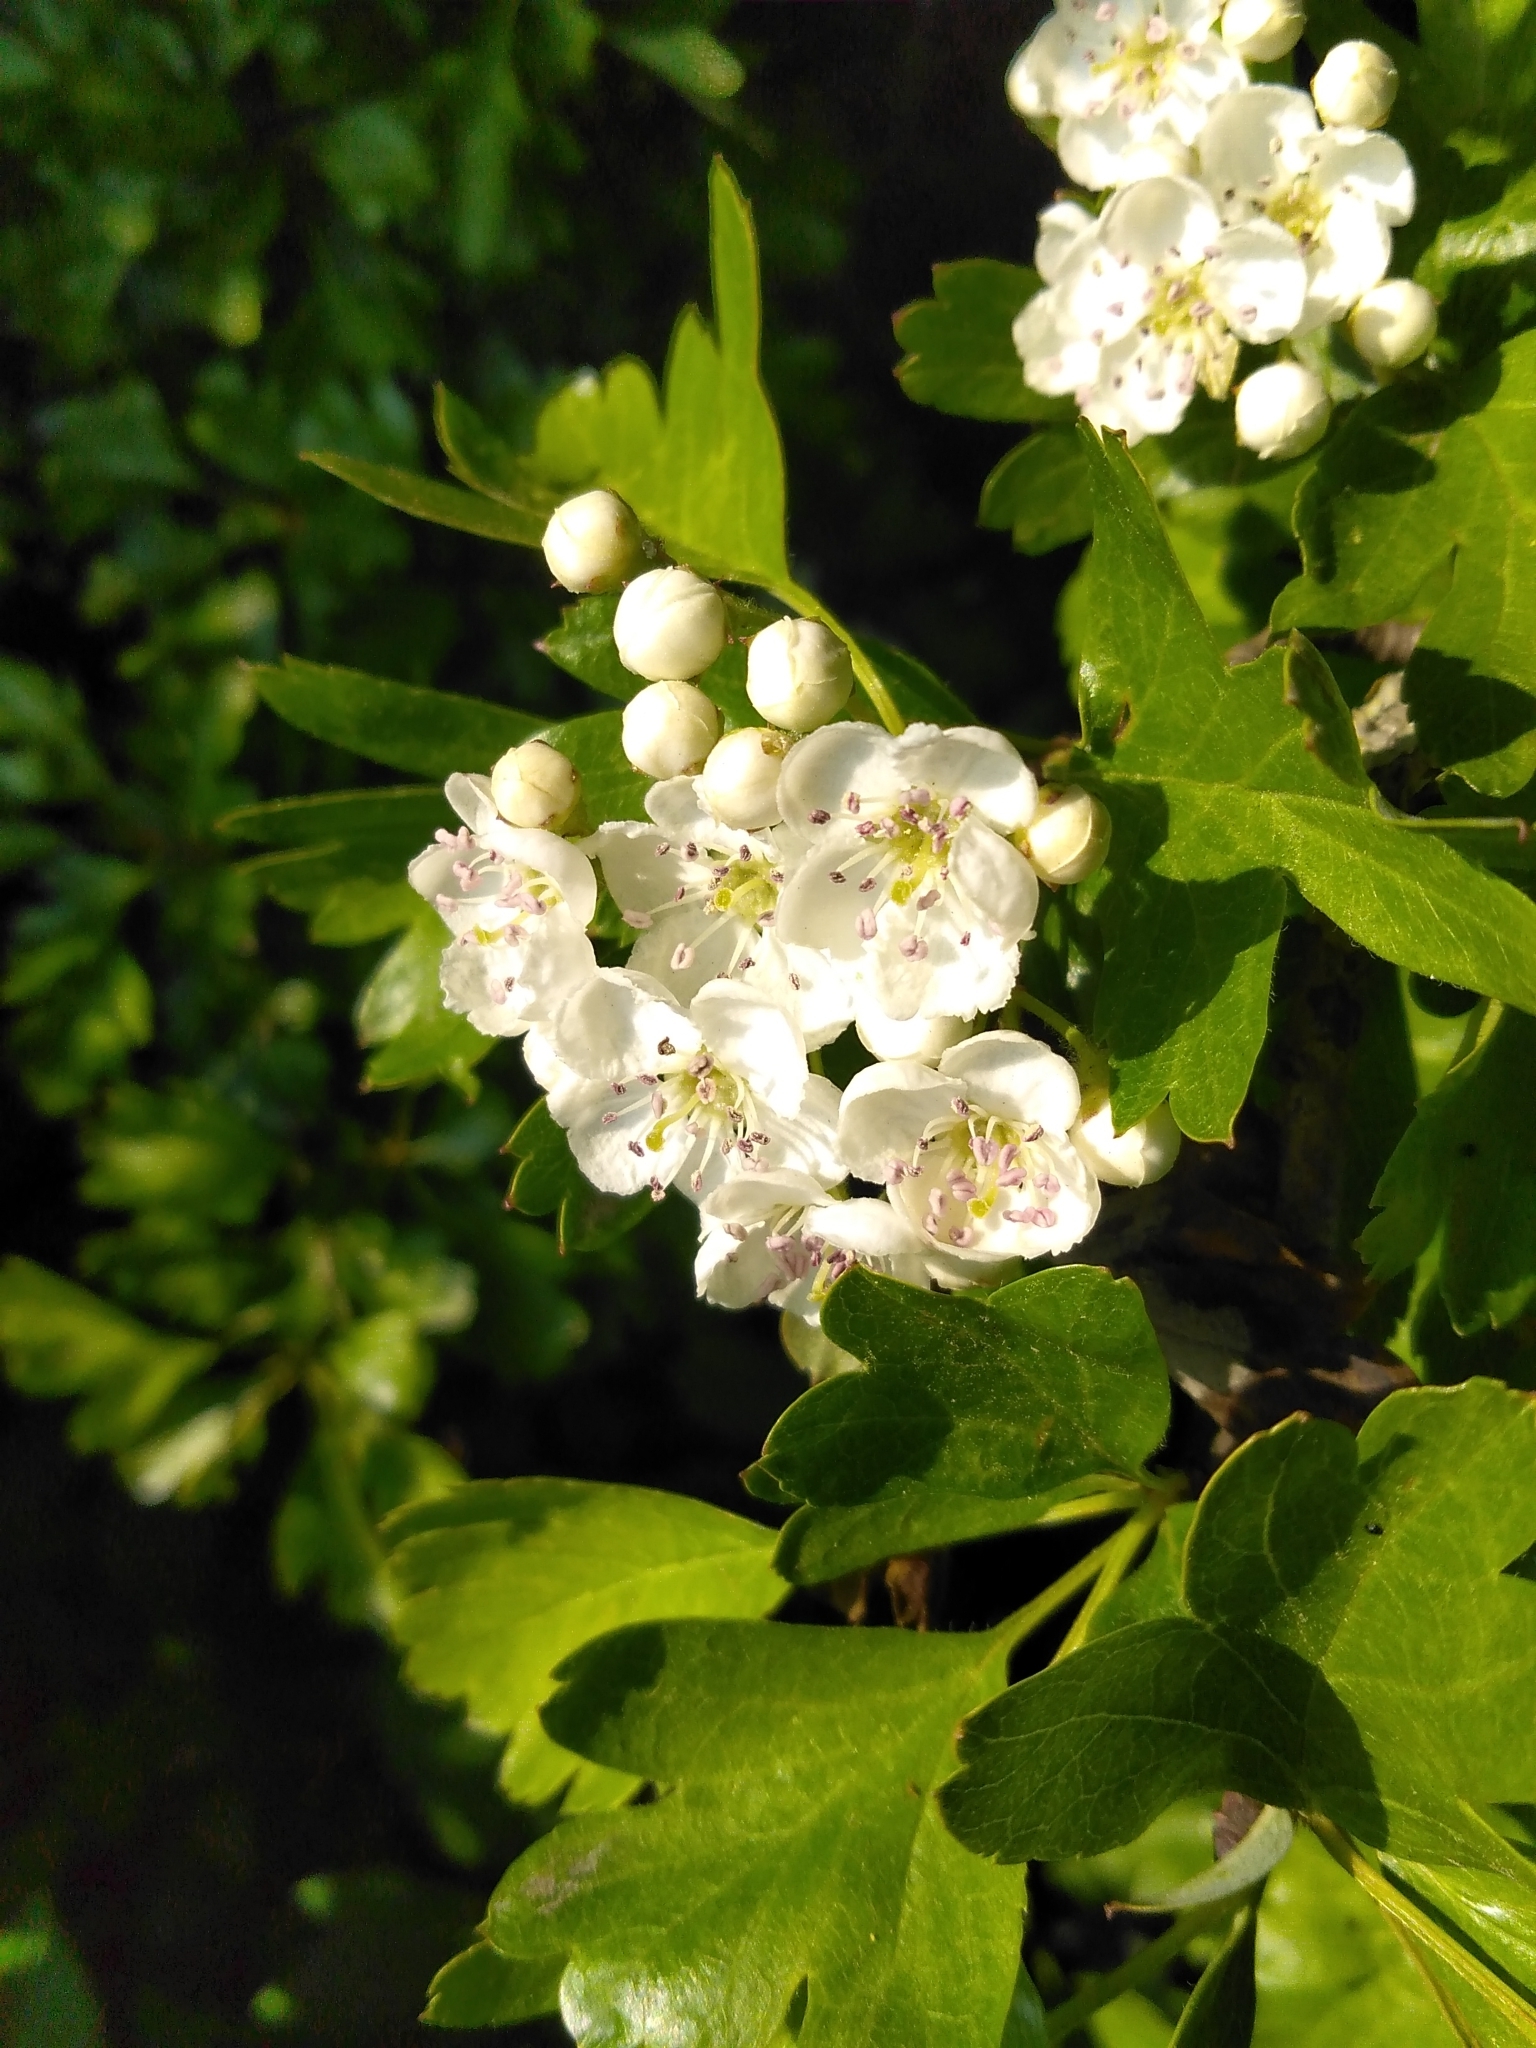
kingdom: Plantae
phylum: Tracheophyta
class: Magnoliopsida
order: Rosales
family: Rosaceae
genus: Crataegus
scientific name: Crataegus monogyna
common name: Hawthorn
